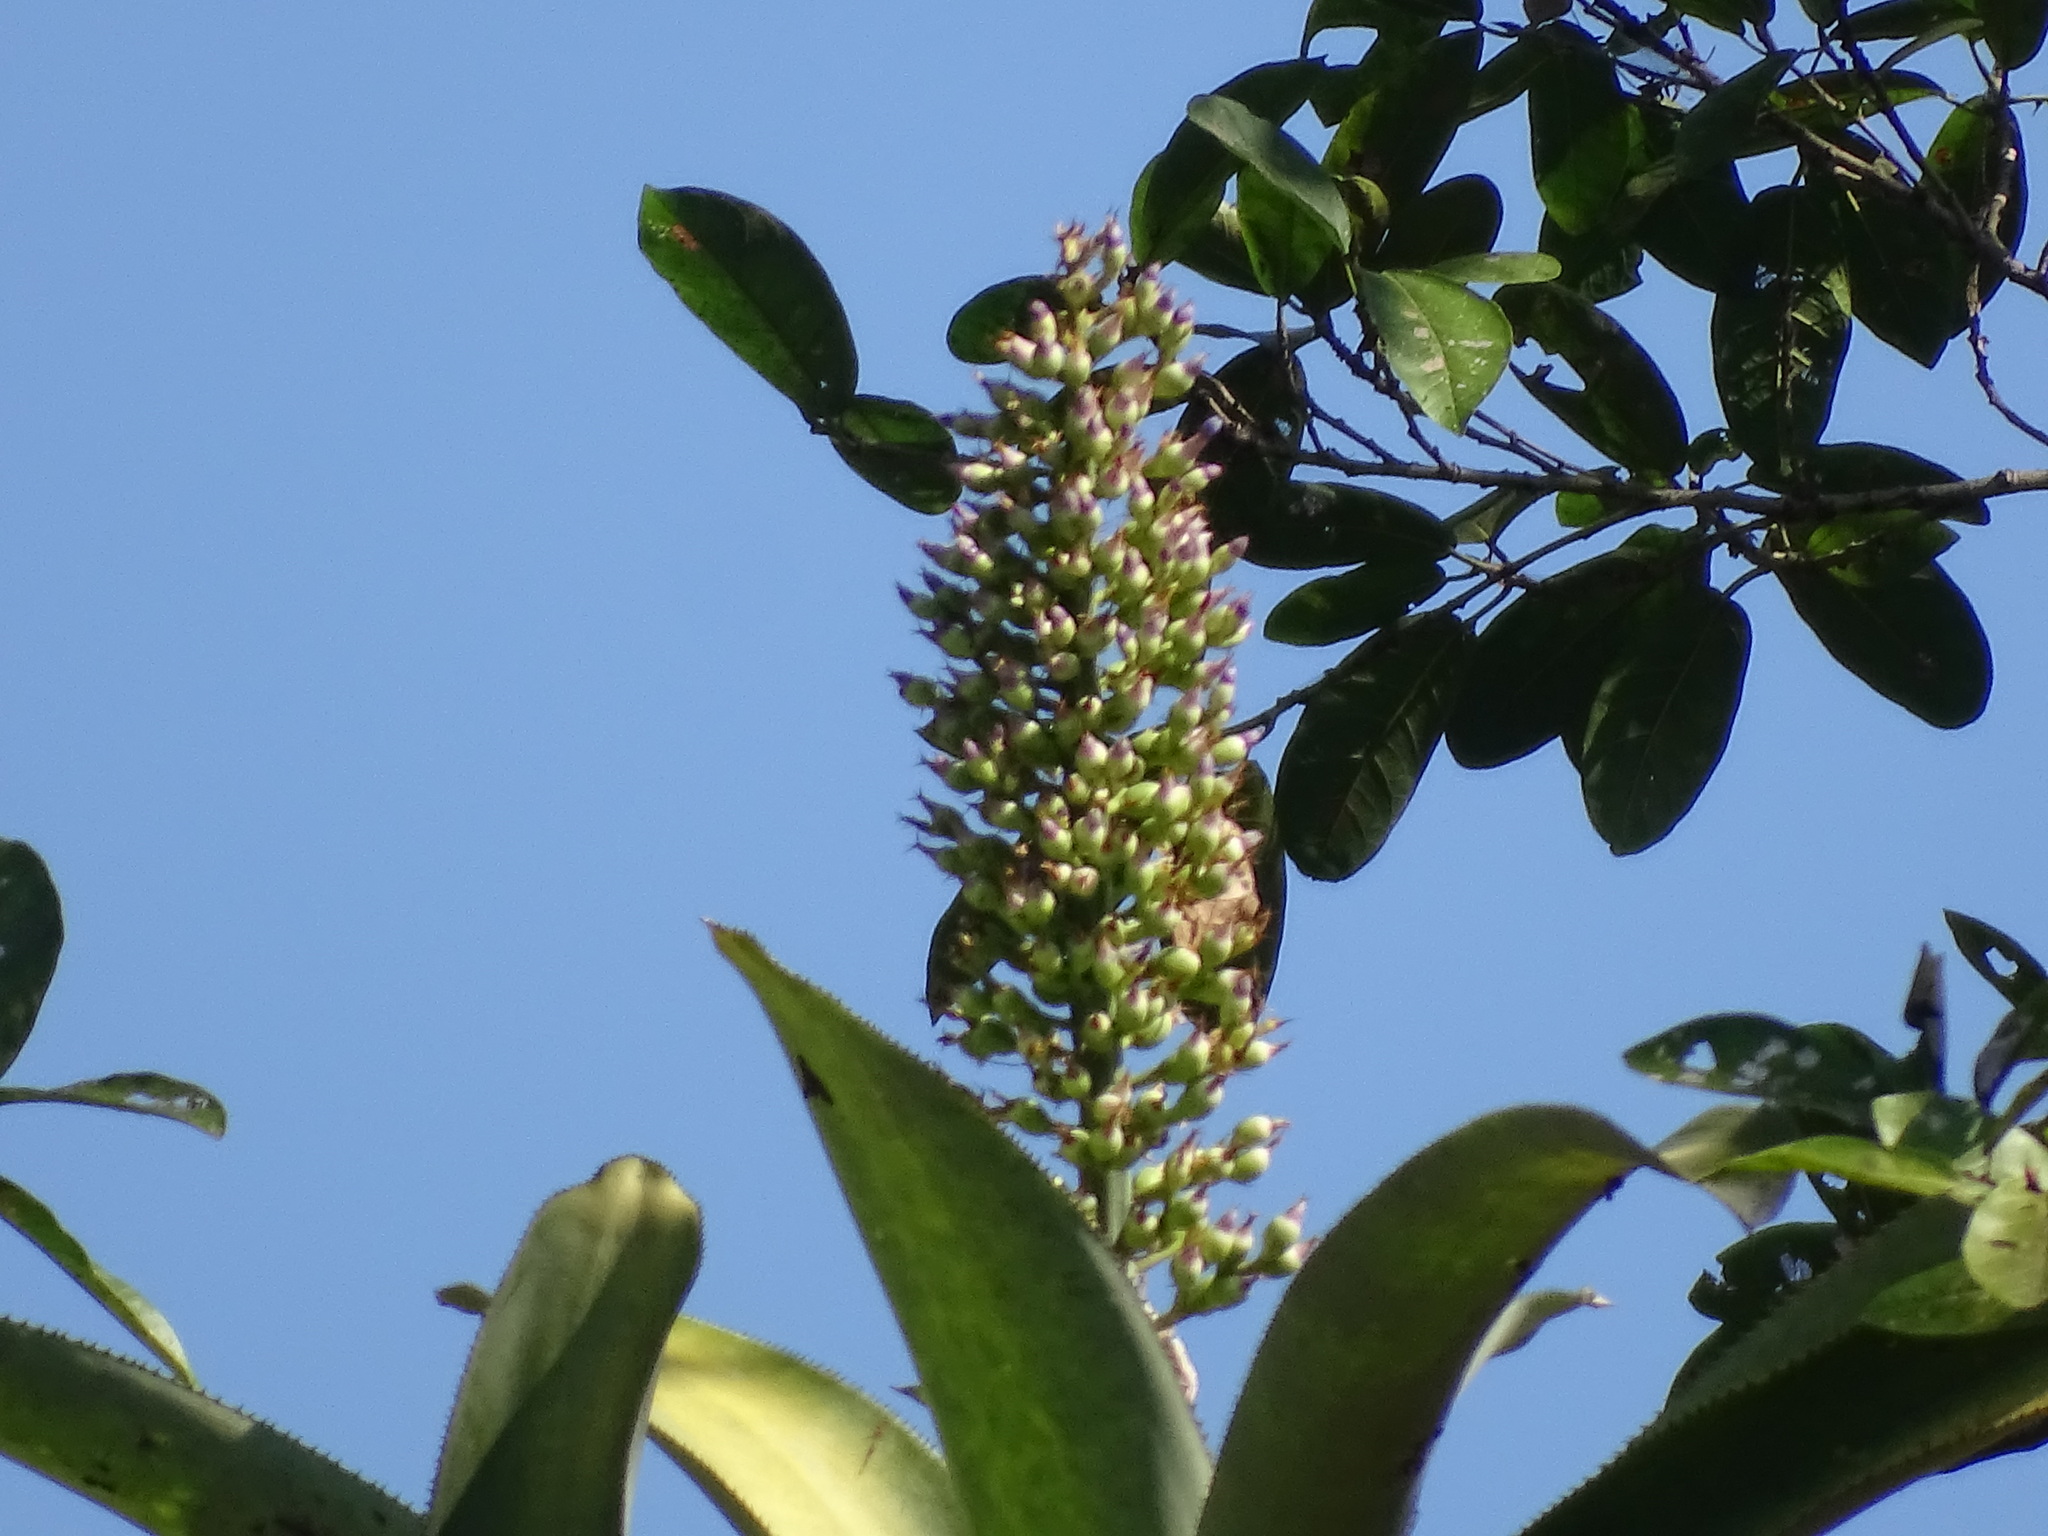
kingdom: Plantae
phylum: Tracheophyta
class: Liliopsida
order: Poales
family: Bromeliaceae
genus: Aechmea
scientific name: Aechmea matudae
